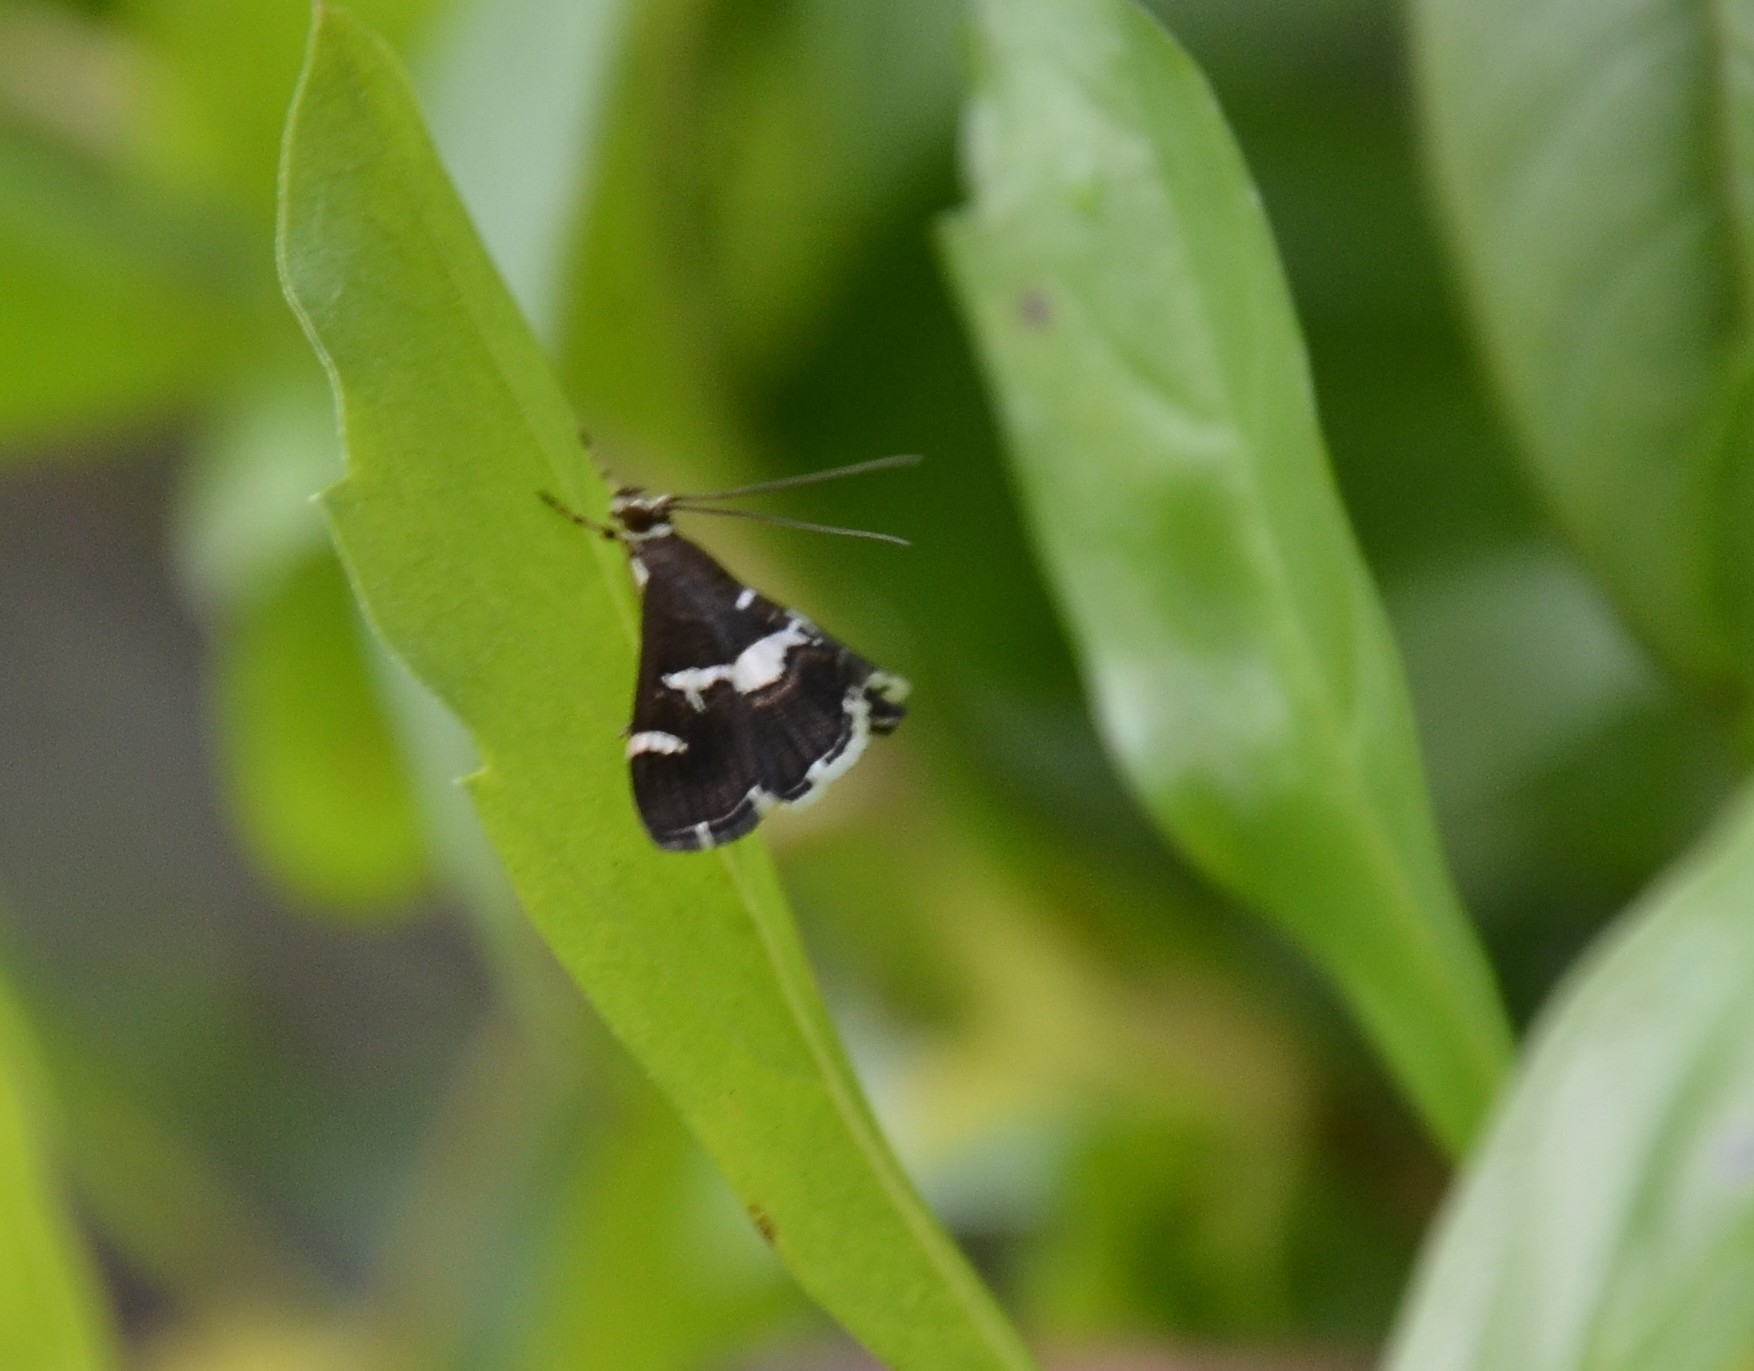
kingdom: Animalia
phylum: Arthropoda
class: Insecta
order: Lepidoptera
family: Crambidae
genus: Spoladea
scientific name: Spoladea recurvalis
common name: Beet webworm moth
